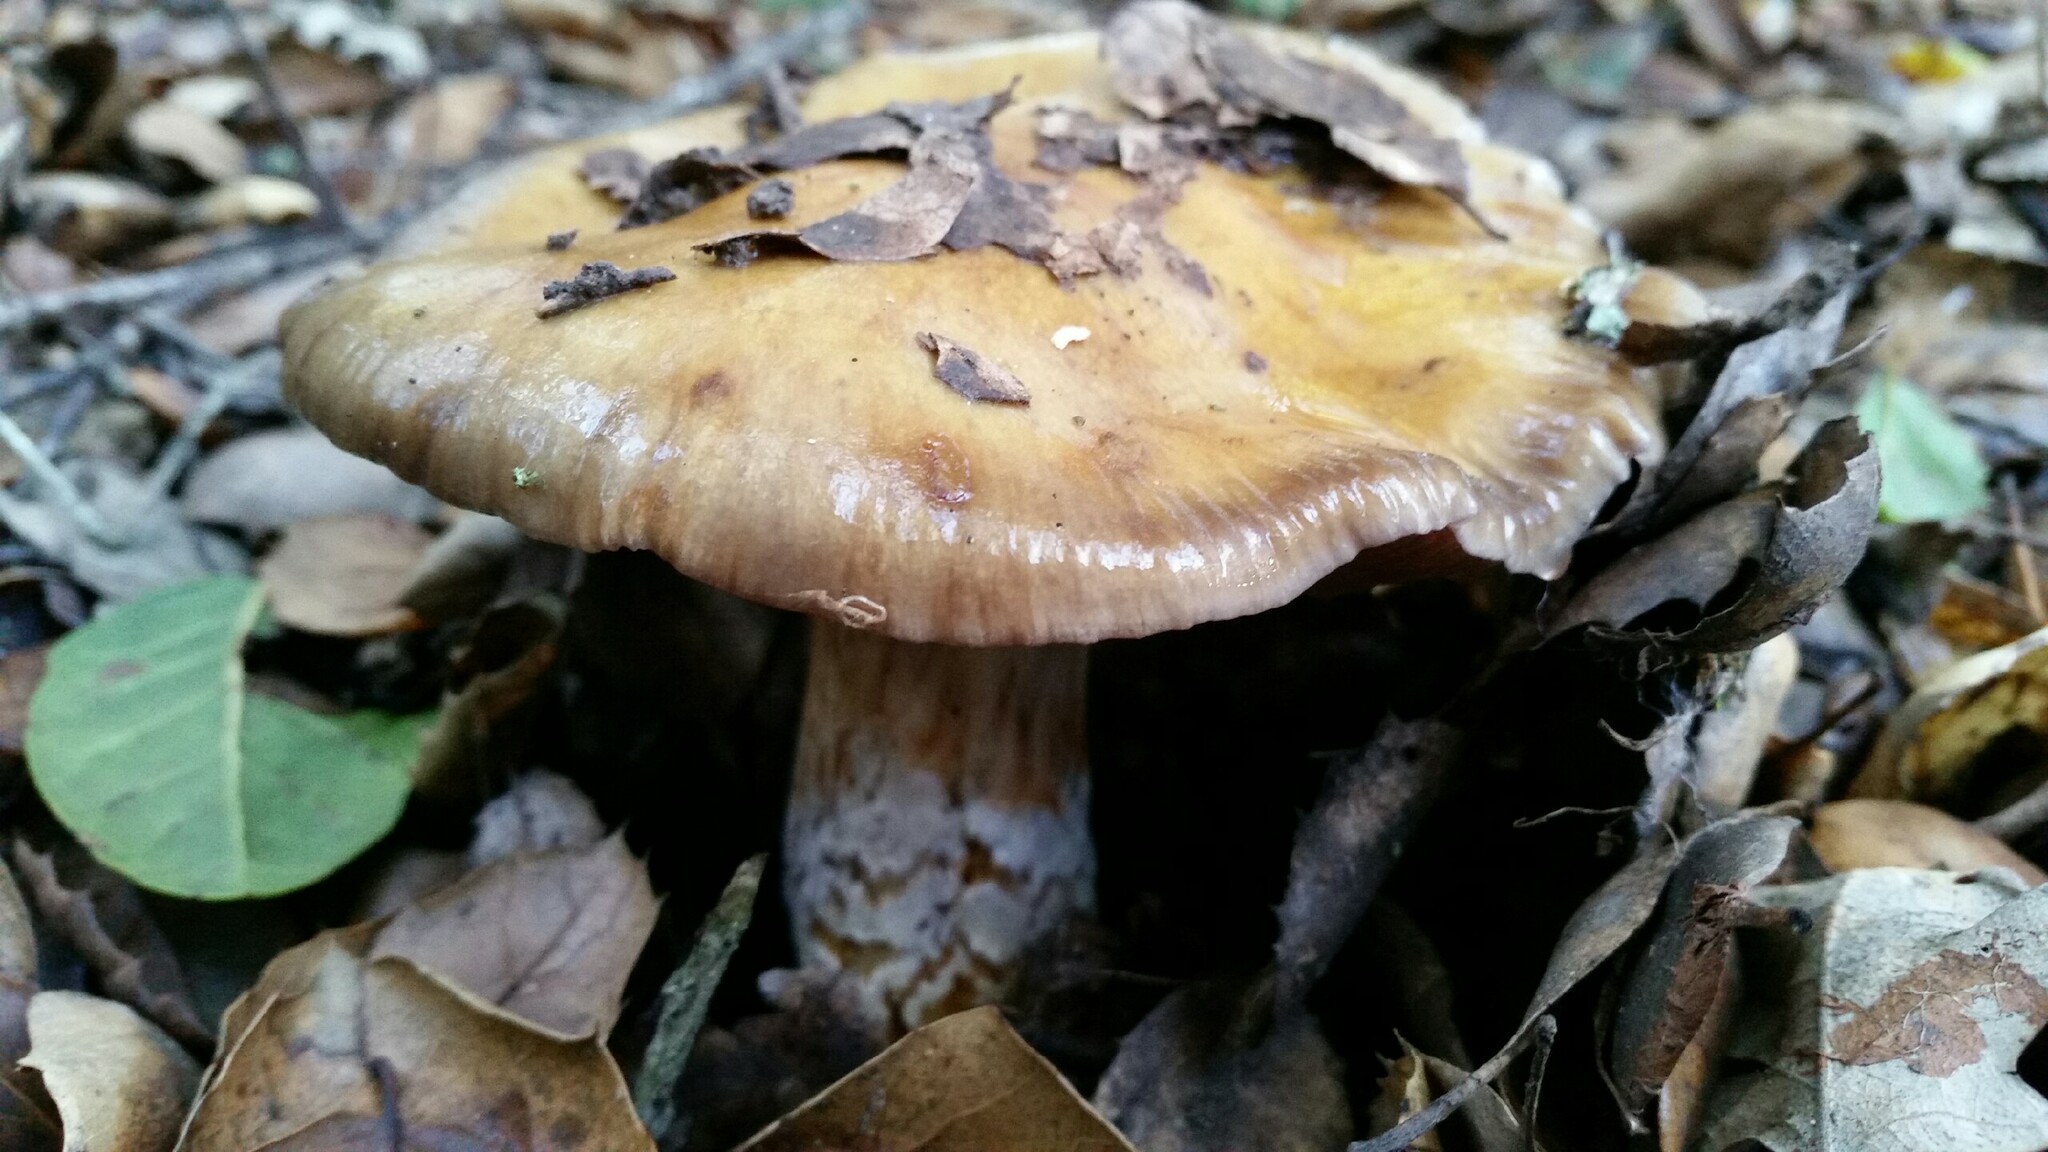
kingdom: Fungi
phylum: Basidiomycota
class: Agaricomycetes
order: Agaricales
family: Cortinariaceae
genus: Cortinarius
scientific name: Cortinarius glutinosoarmillatus
